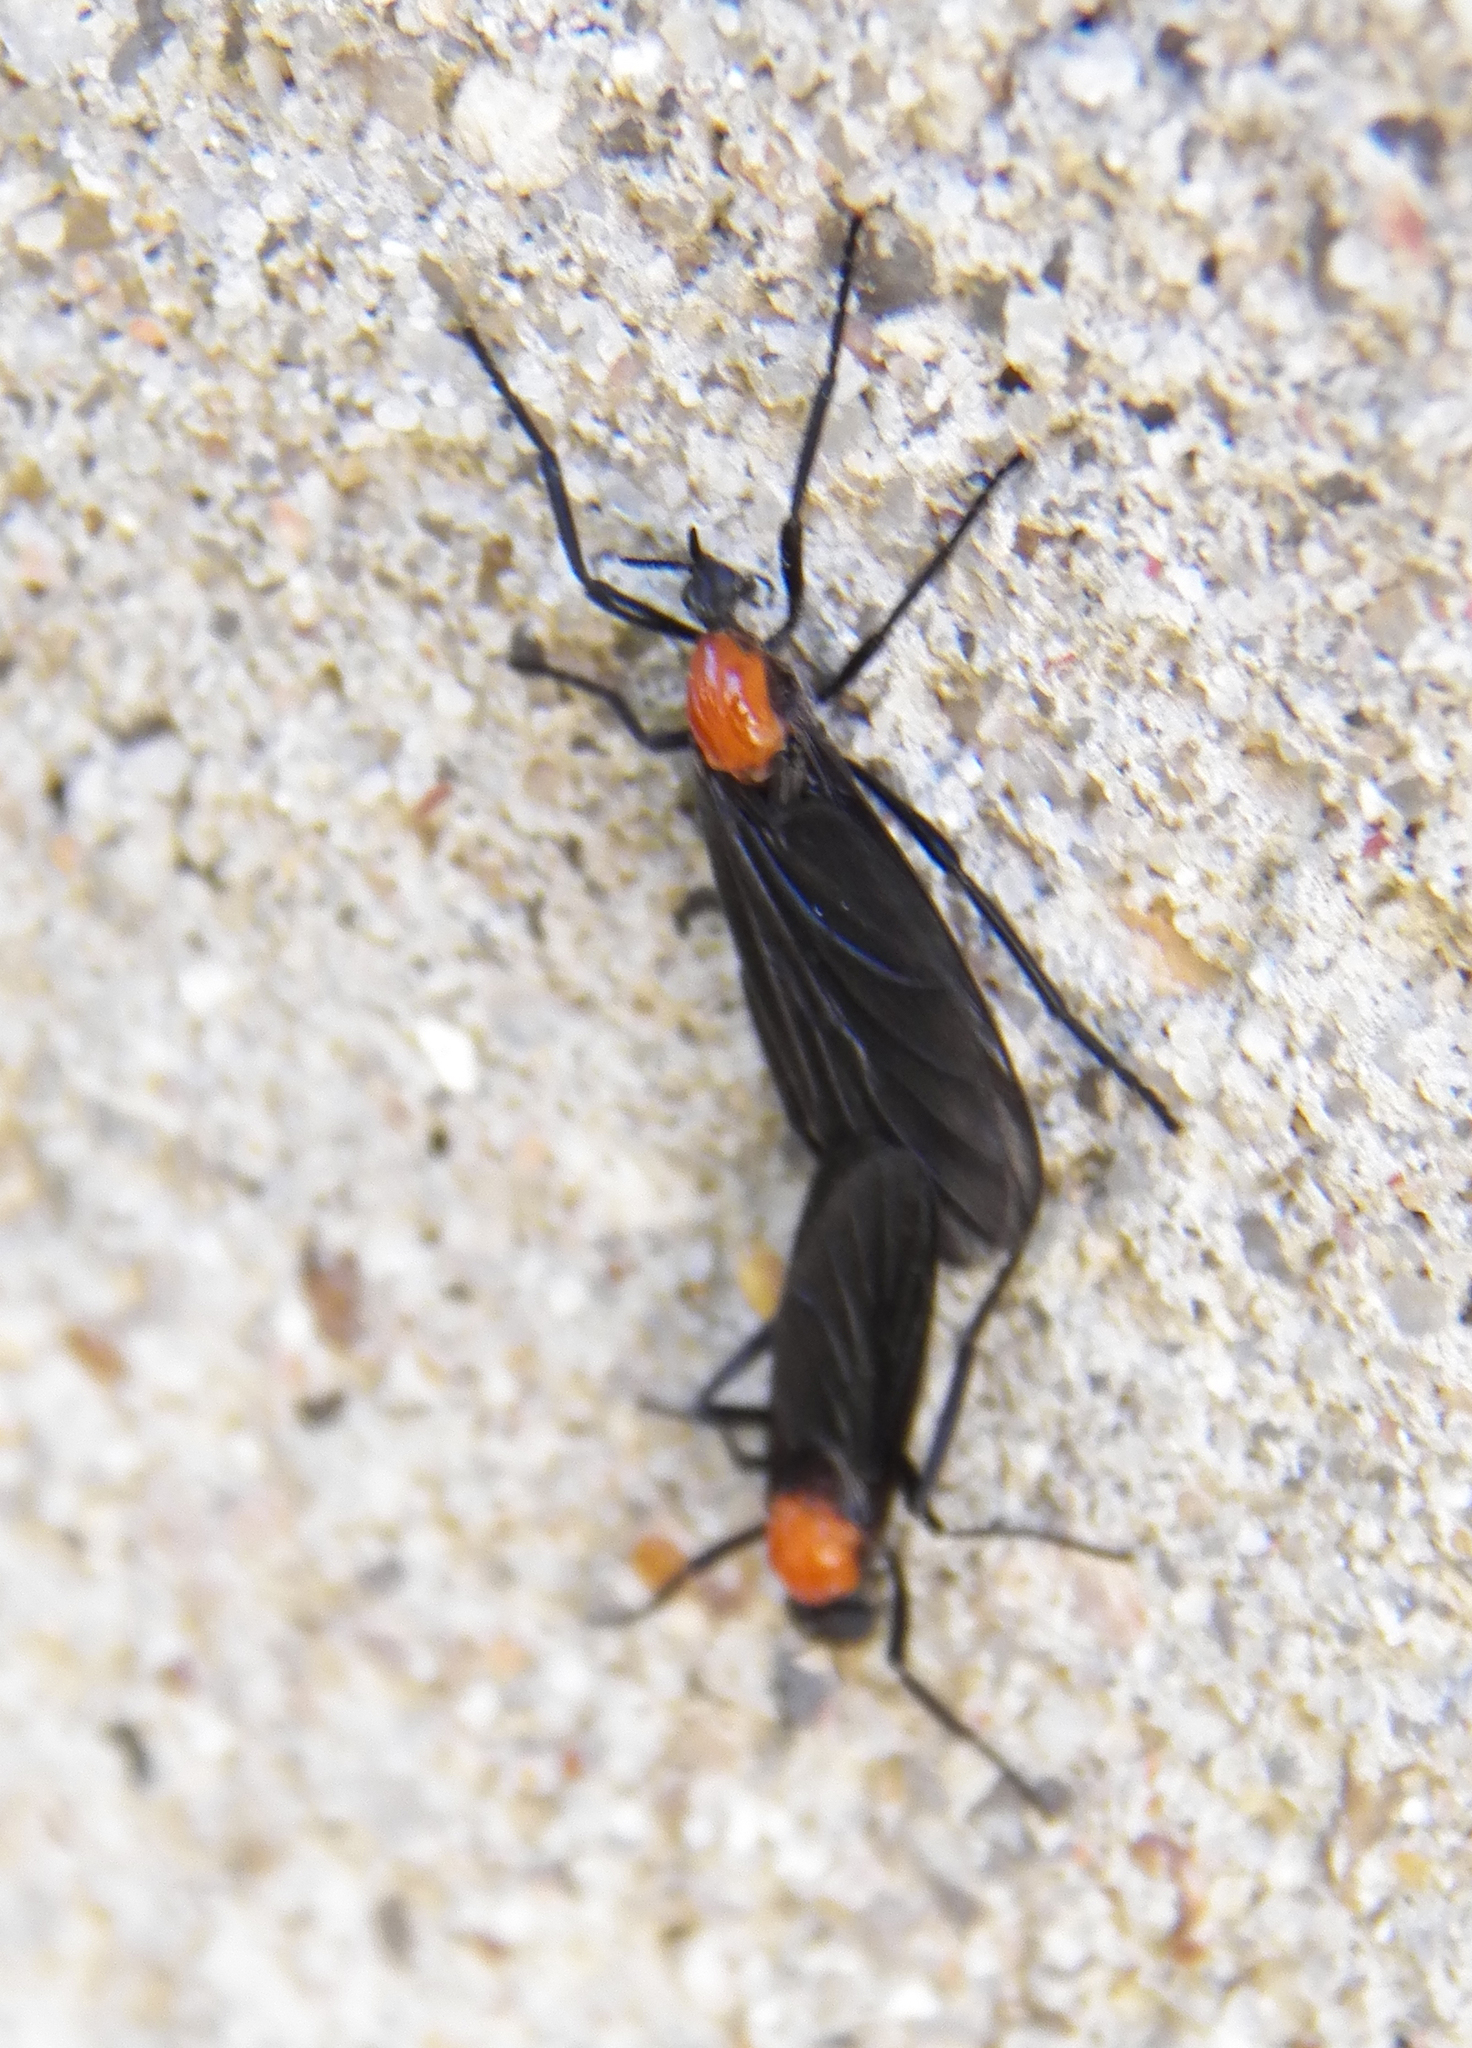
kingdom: Animalia
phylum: Arthropoda
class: Insecta
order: Diptera
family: Bibionidae
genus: Plecia
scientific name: Plecia nearctica
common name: March fly
